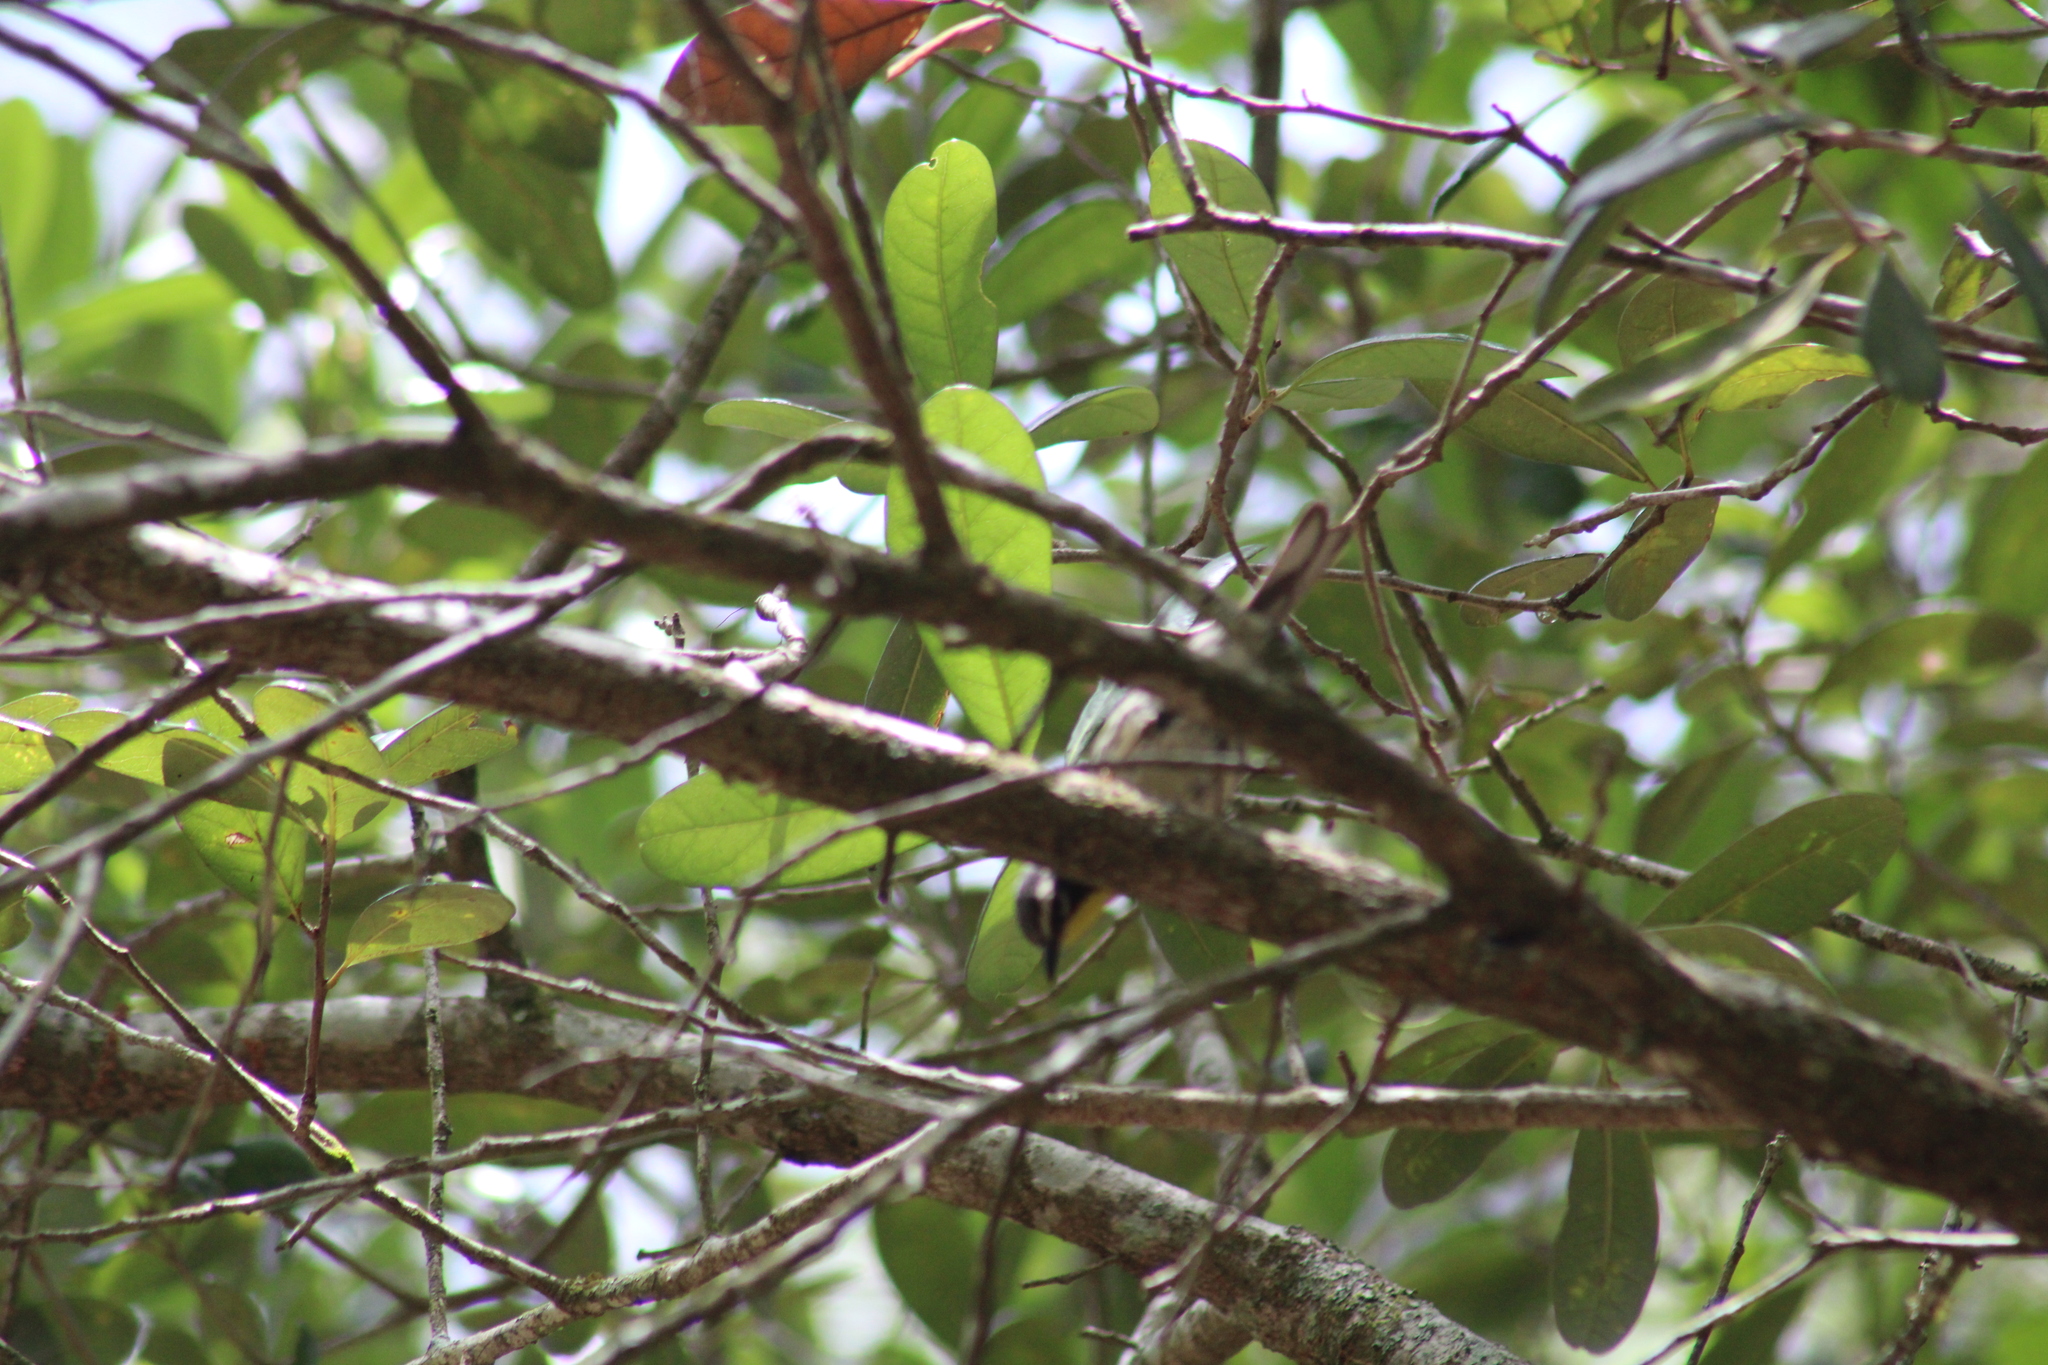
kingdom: Animalia
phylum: Chordata
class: Aves
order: Passeriformes
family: Parulidae
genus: Setophaga
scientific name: Setophaga dominica
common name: Yellow-throated warbler
